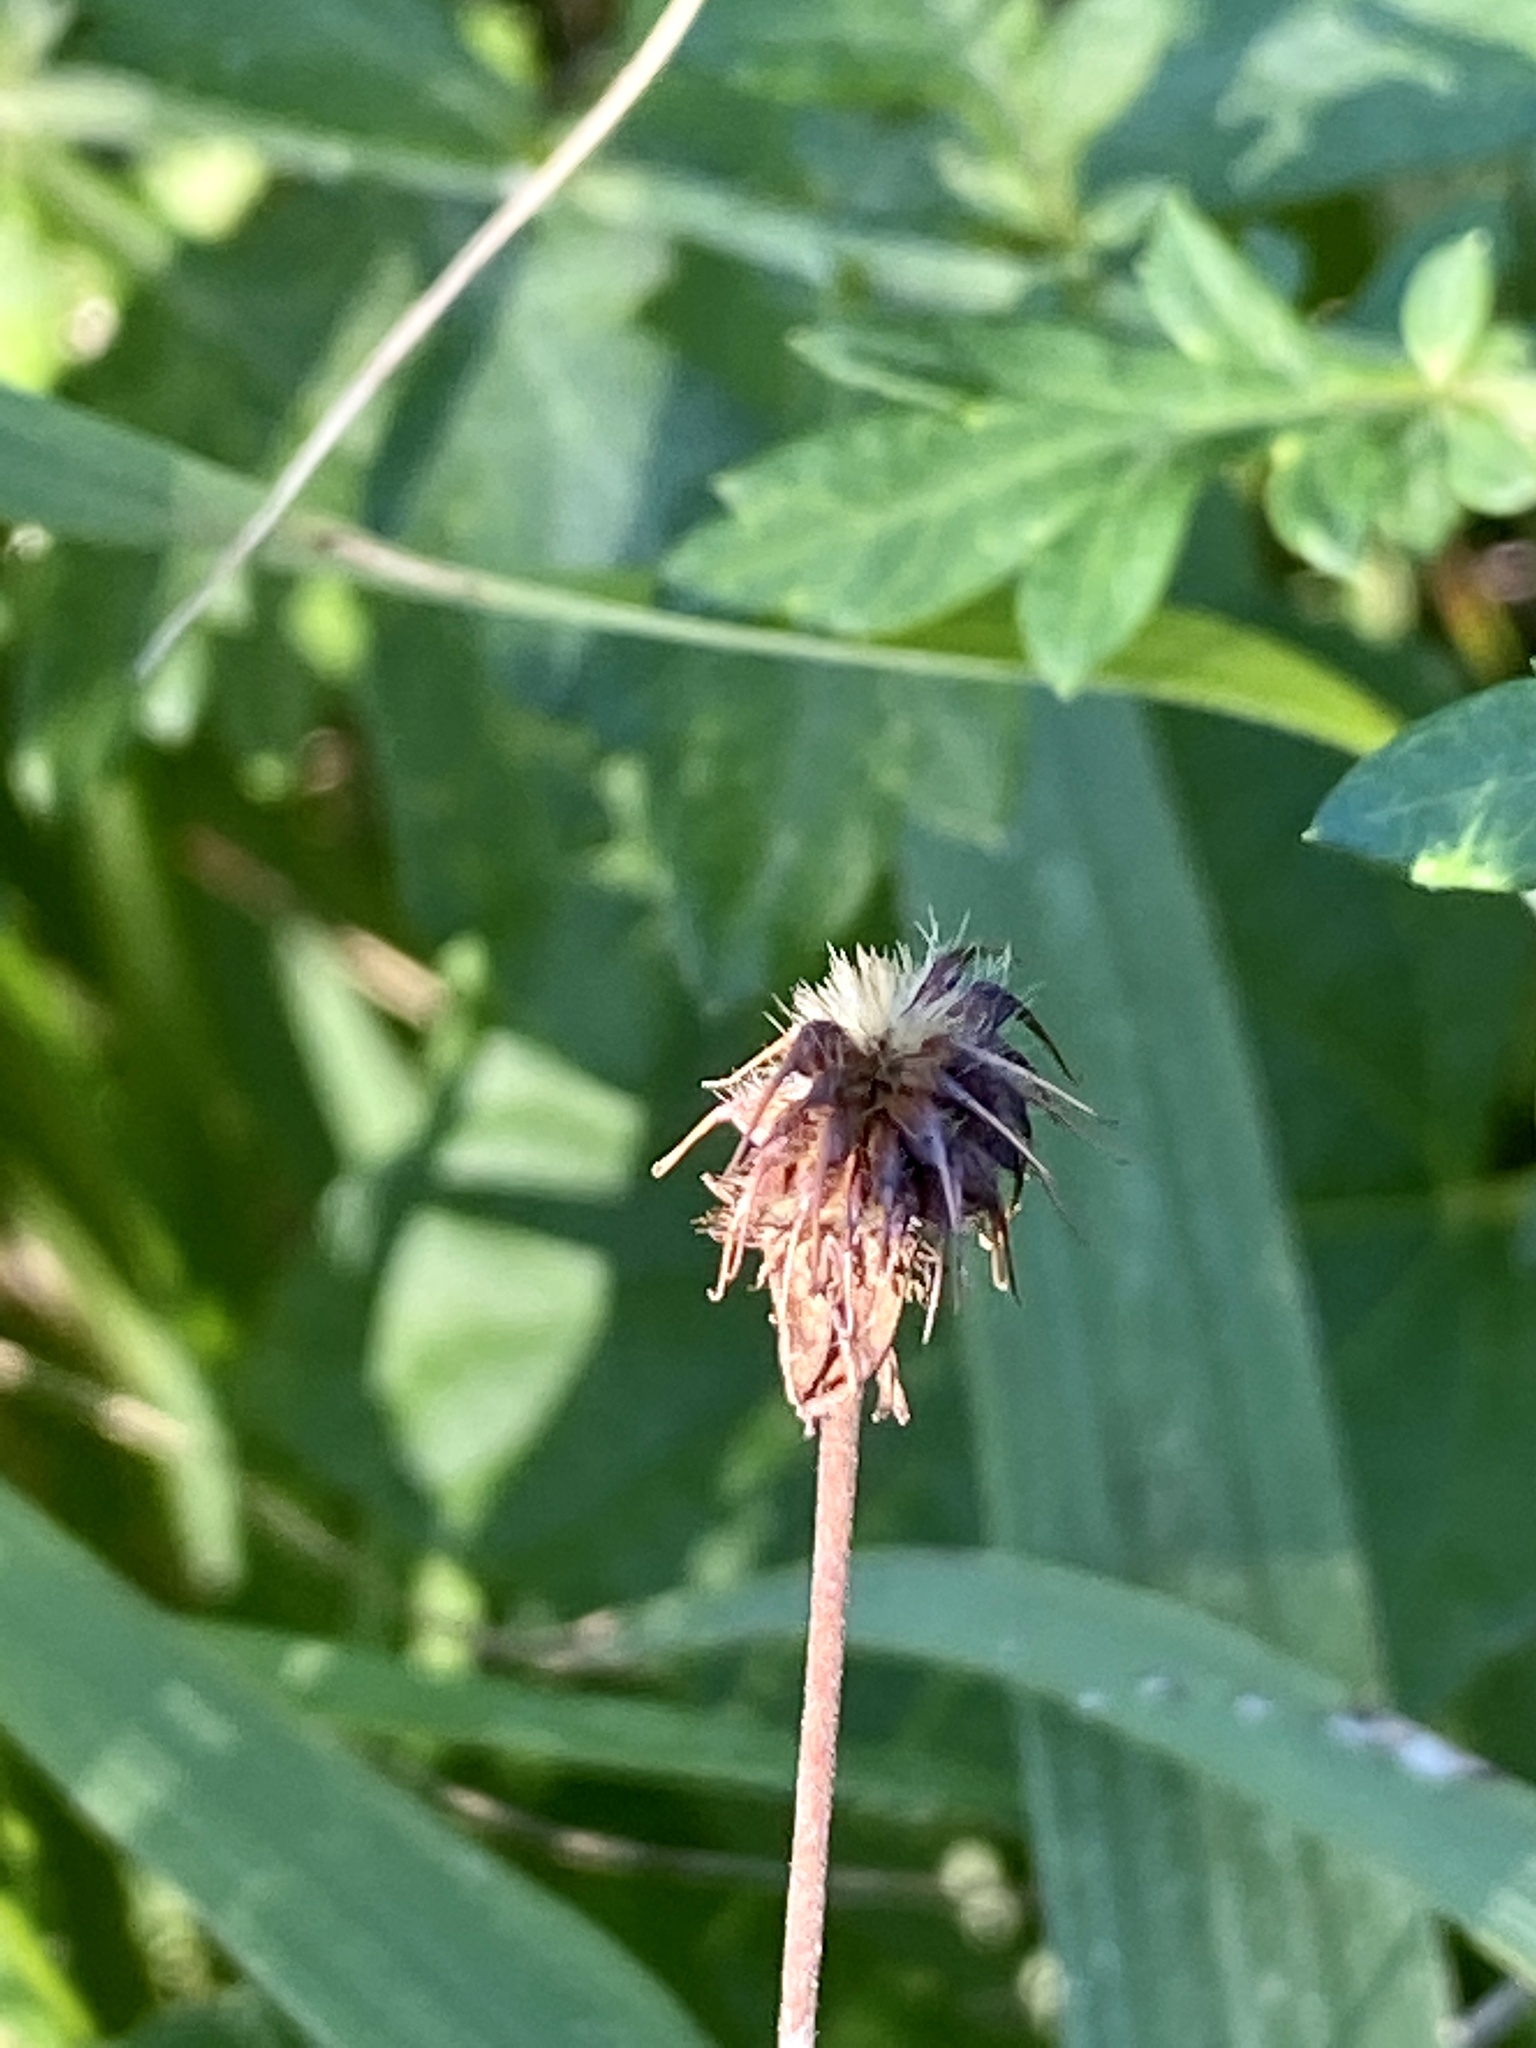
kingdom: Plantae
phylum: Tracheophyta
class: Magnoliopsida
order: Rosales
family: Rosaceae
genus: Geum
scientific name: Geum canadense
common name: White avens
